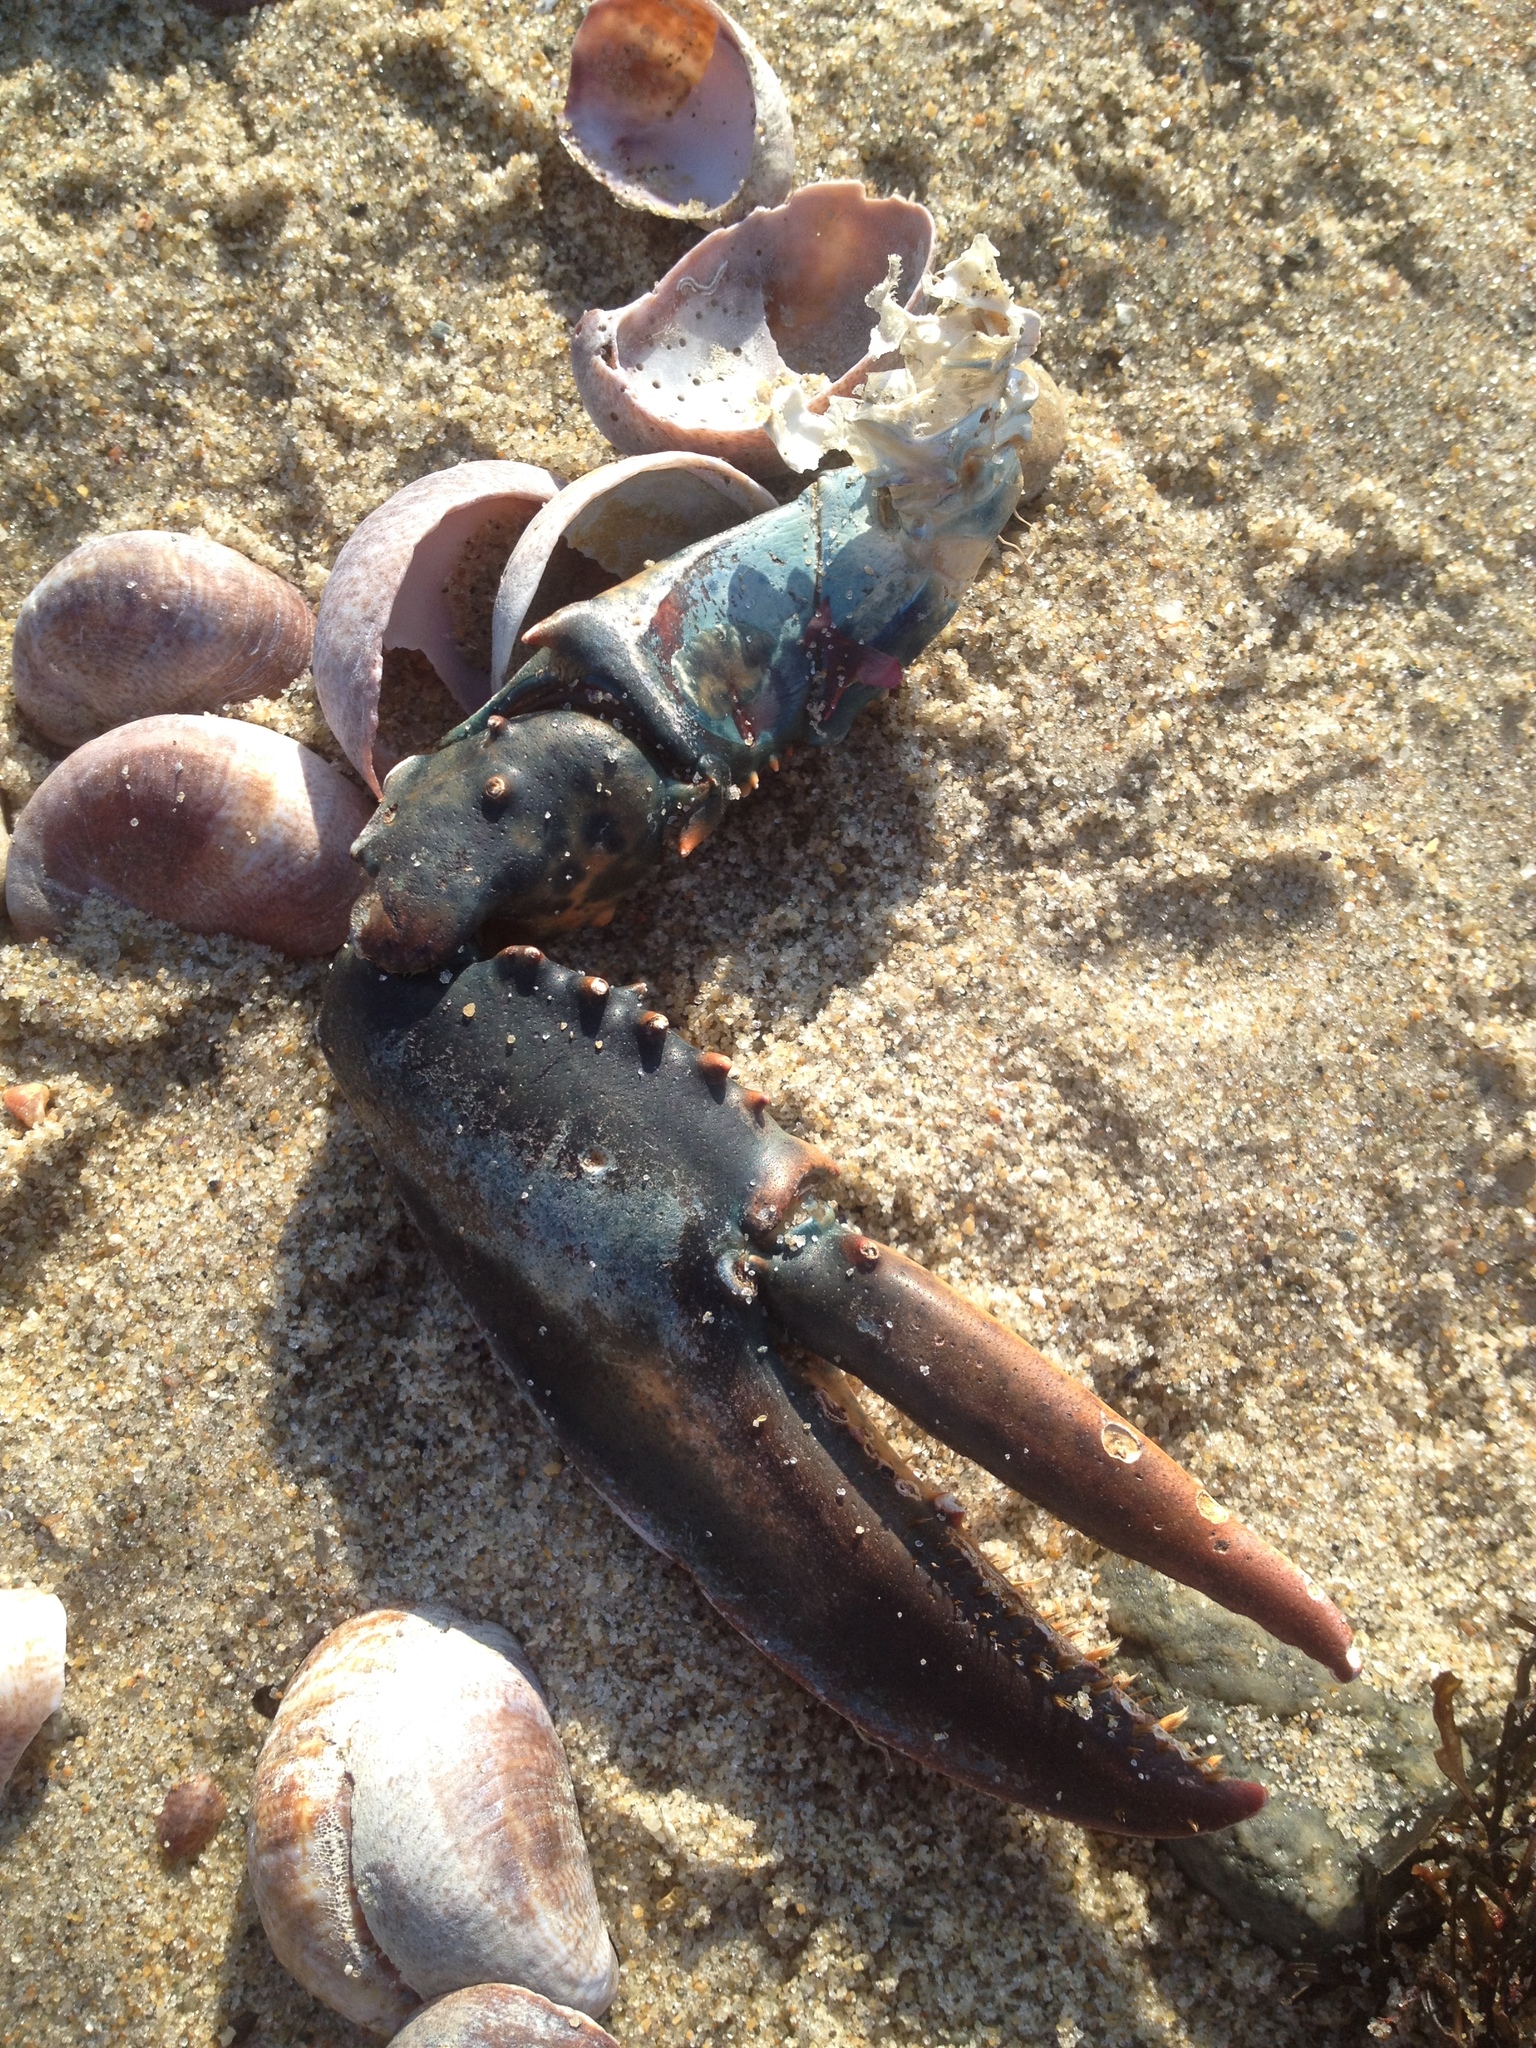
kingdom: Animalia
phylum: Arthropoda
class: Malacostraca
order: Decapoda
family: Nephropidae
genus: Homarus
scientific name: Homarus americanus
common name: American lobster
